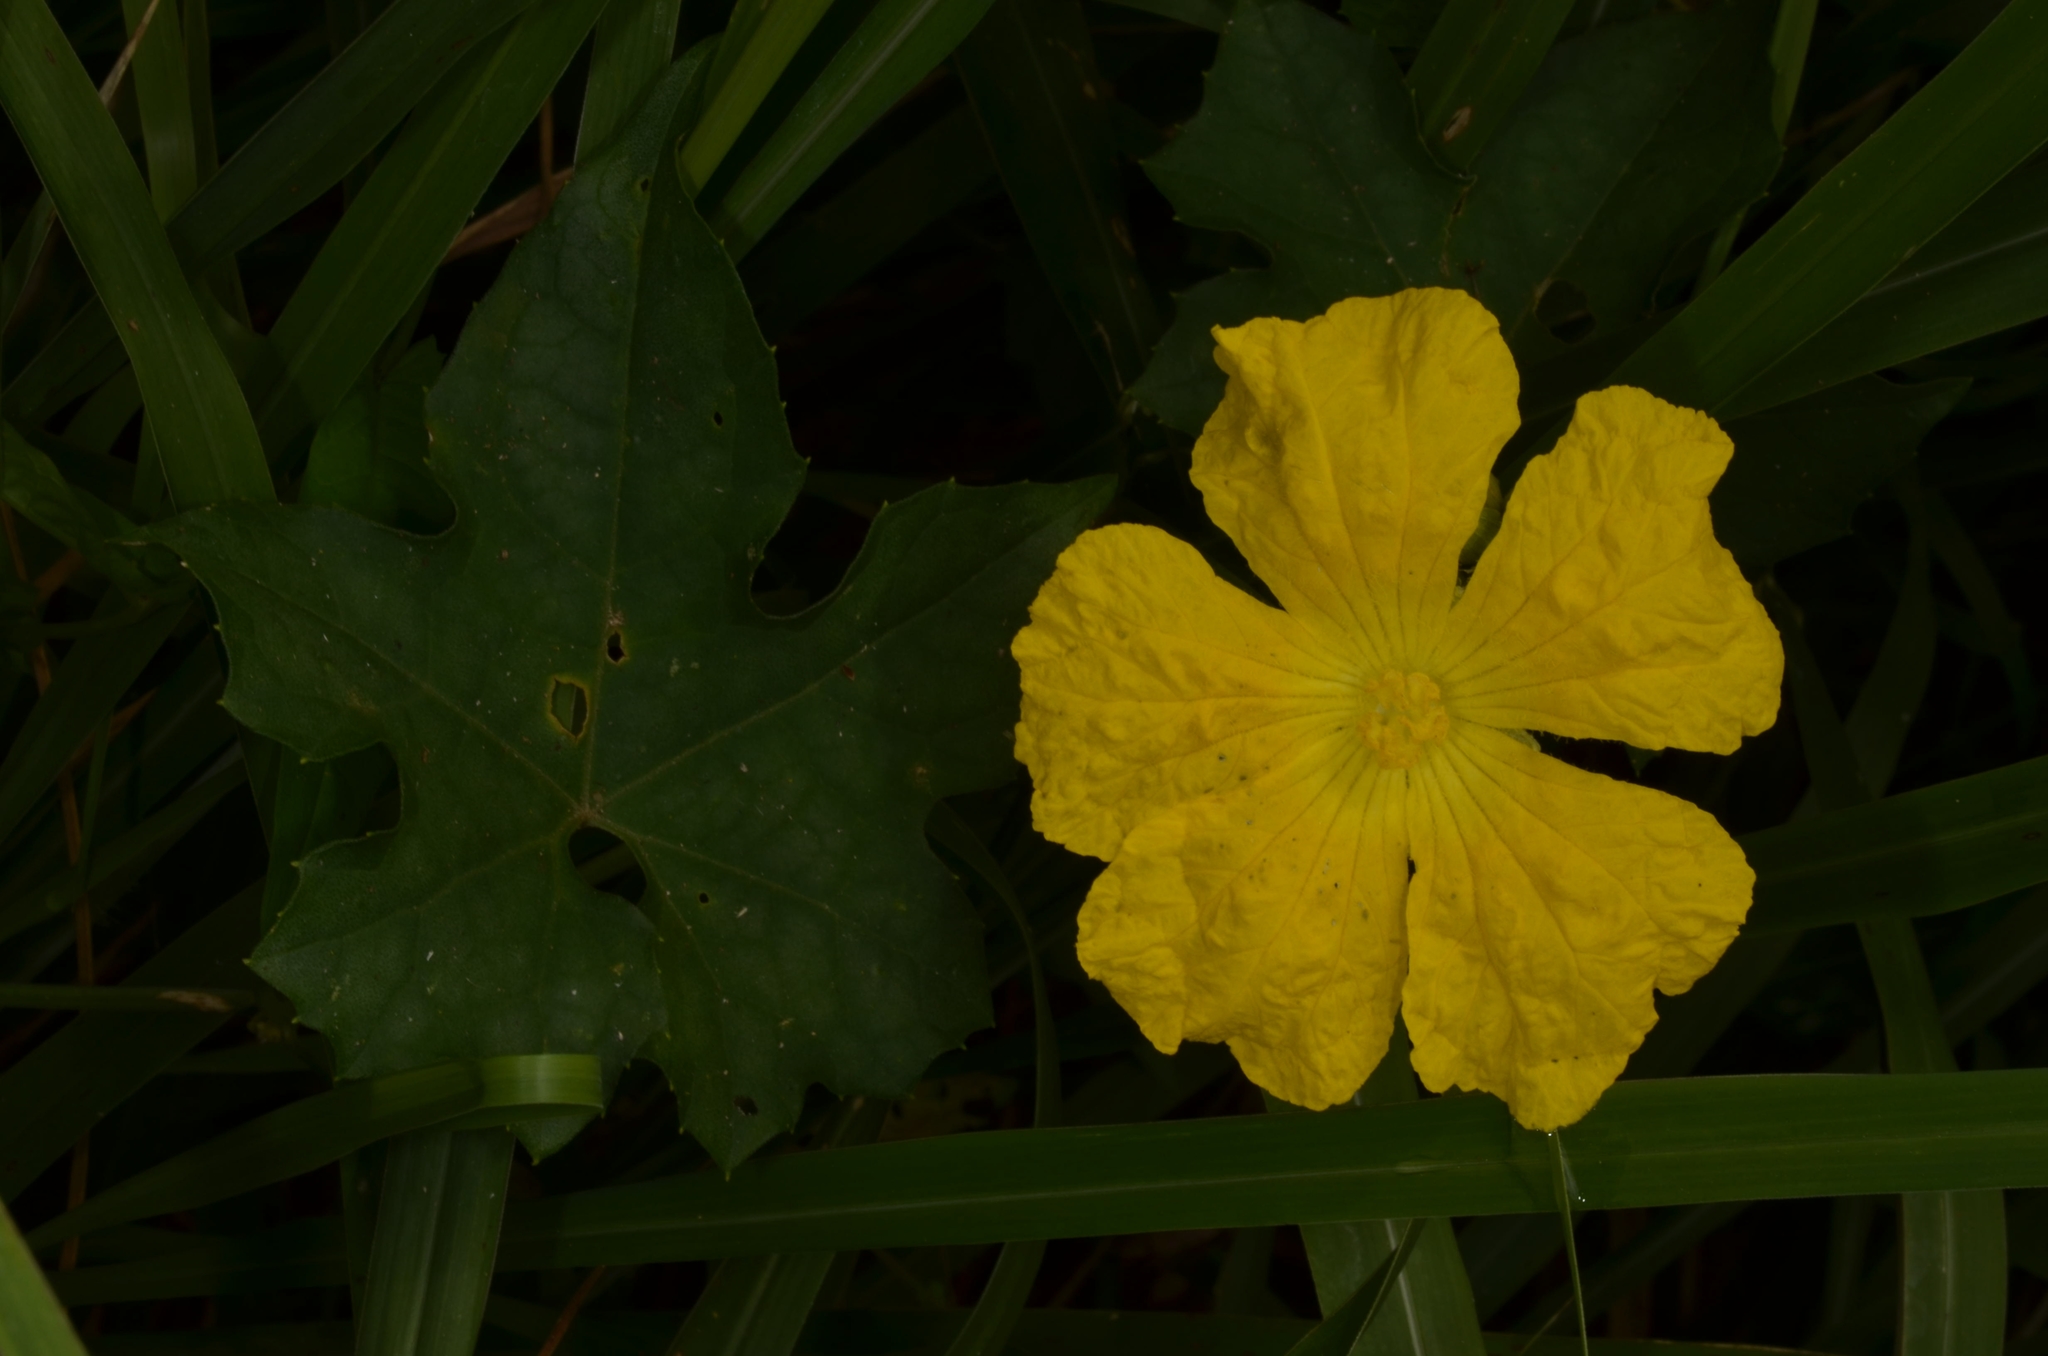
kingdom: Plantae
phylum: Tracheophyta
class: Magnoliopsida
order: Cucurbitales
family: Cucurbitaceae
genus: Luffa
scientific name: Luffa aegyptiaca
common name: Sponge gourd
